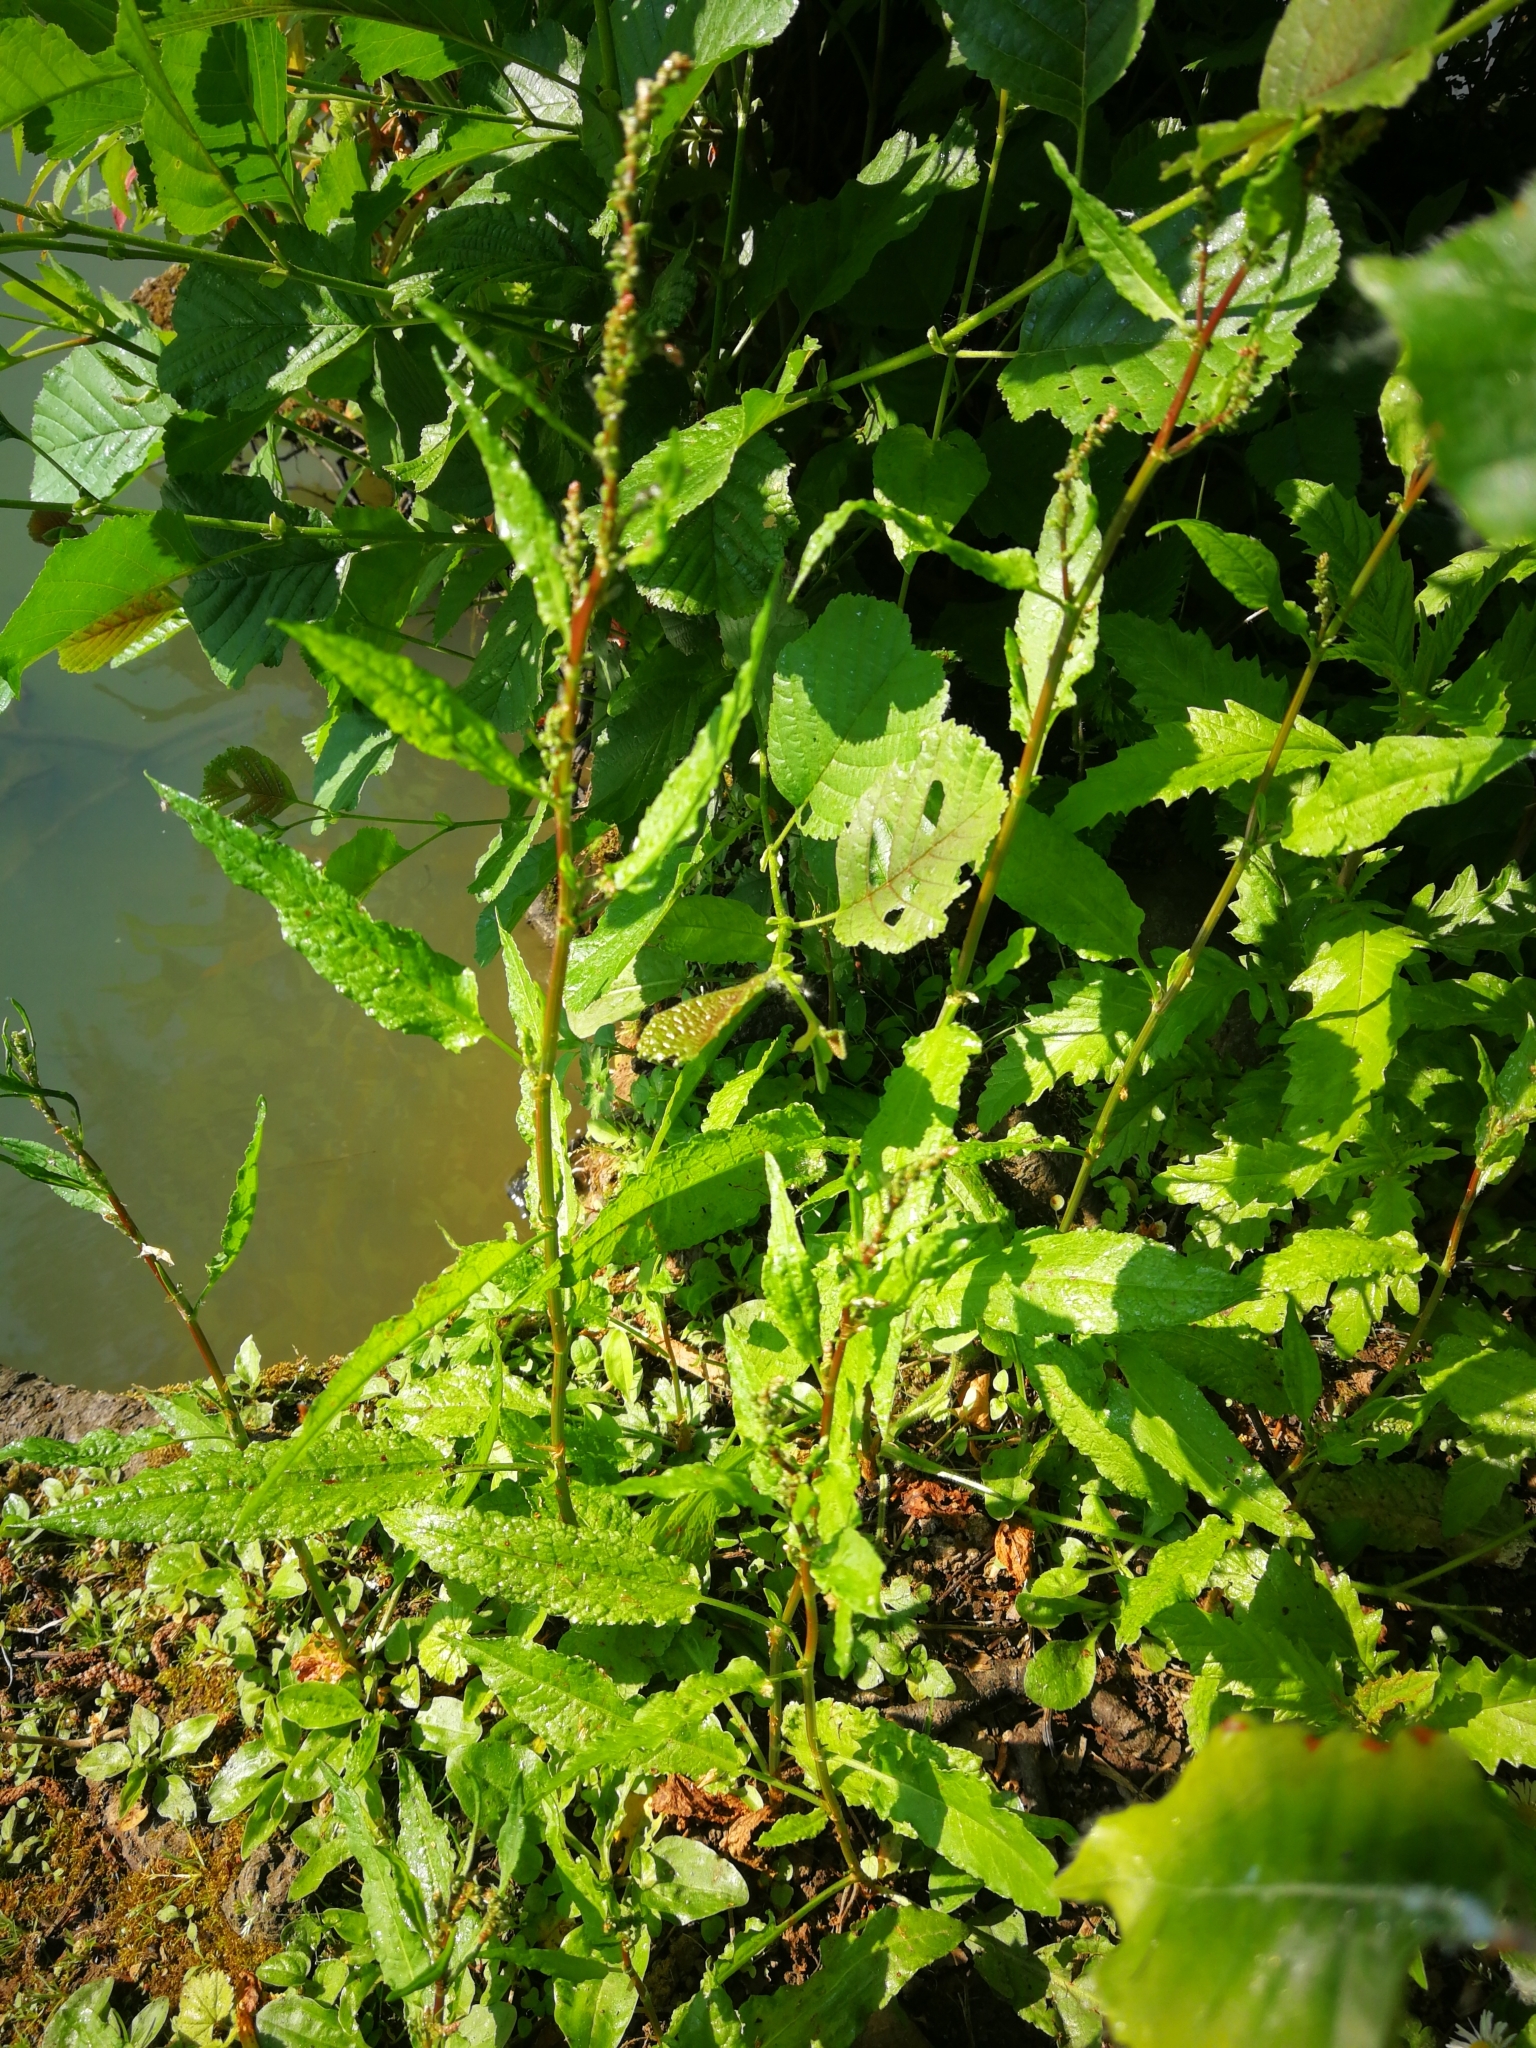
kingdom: Plantae
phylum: Tracheophyta
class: Magnoliopsida
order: Caryophyllales
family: Polygonaceae
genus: Rumex
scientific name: Rumex sanguineus
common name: Wood dock
